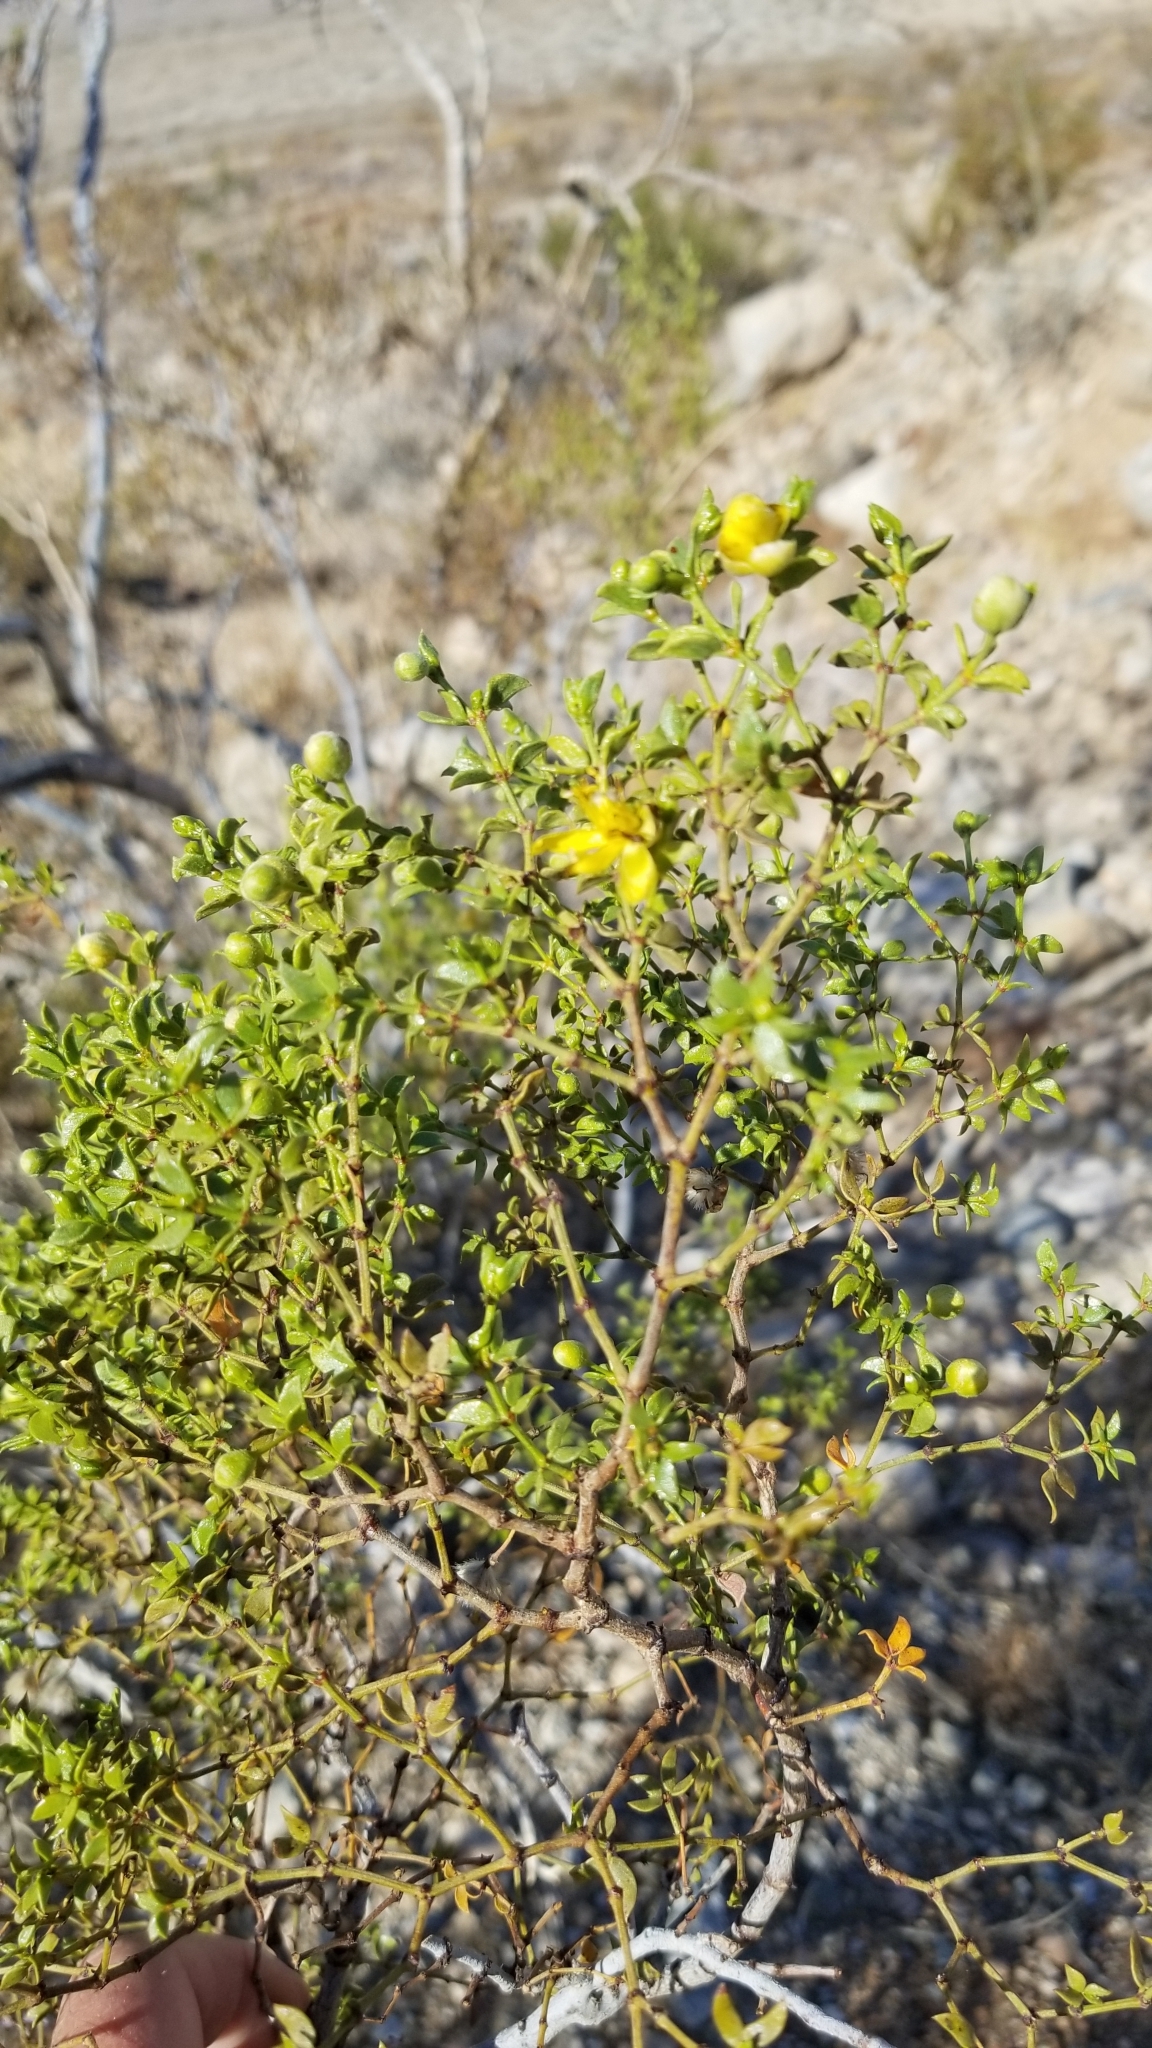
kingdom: Plantae
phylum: Tracheophyta
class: Magnoliopsida
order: Zygophyllales
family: Zygophyllaceae
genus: Larrea
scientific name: Larrea tridentata
